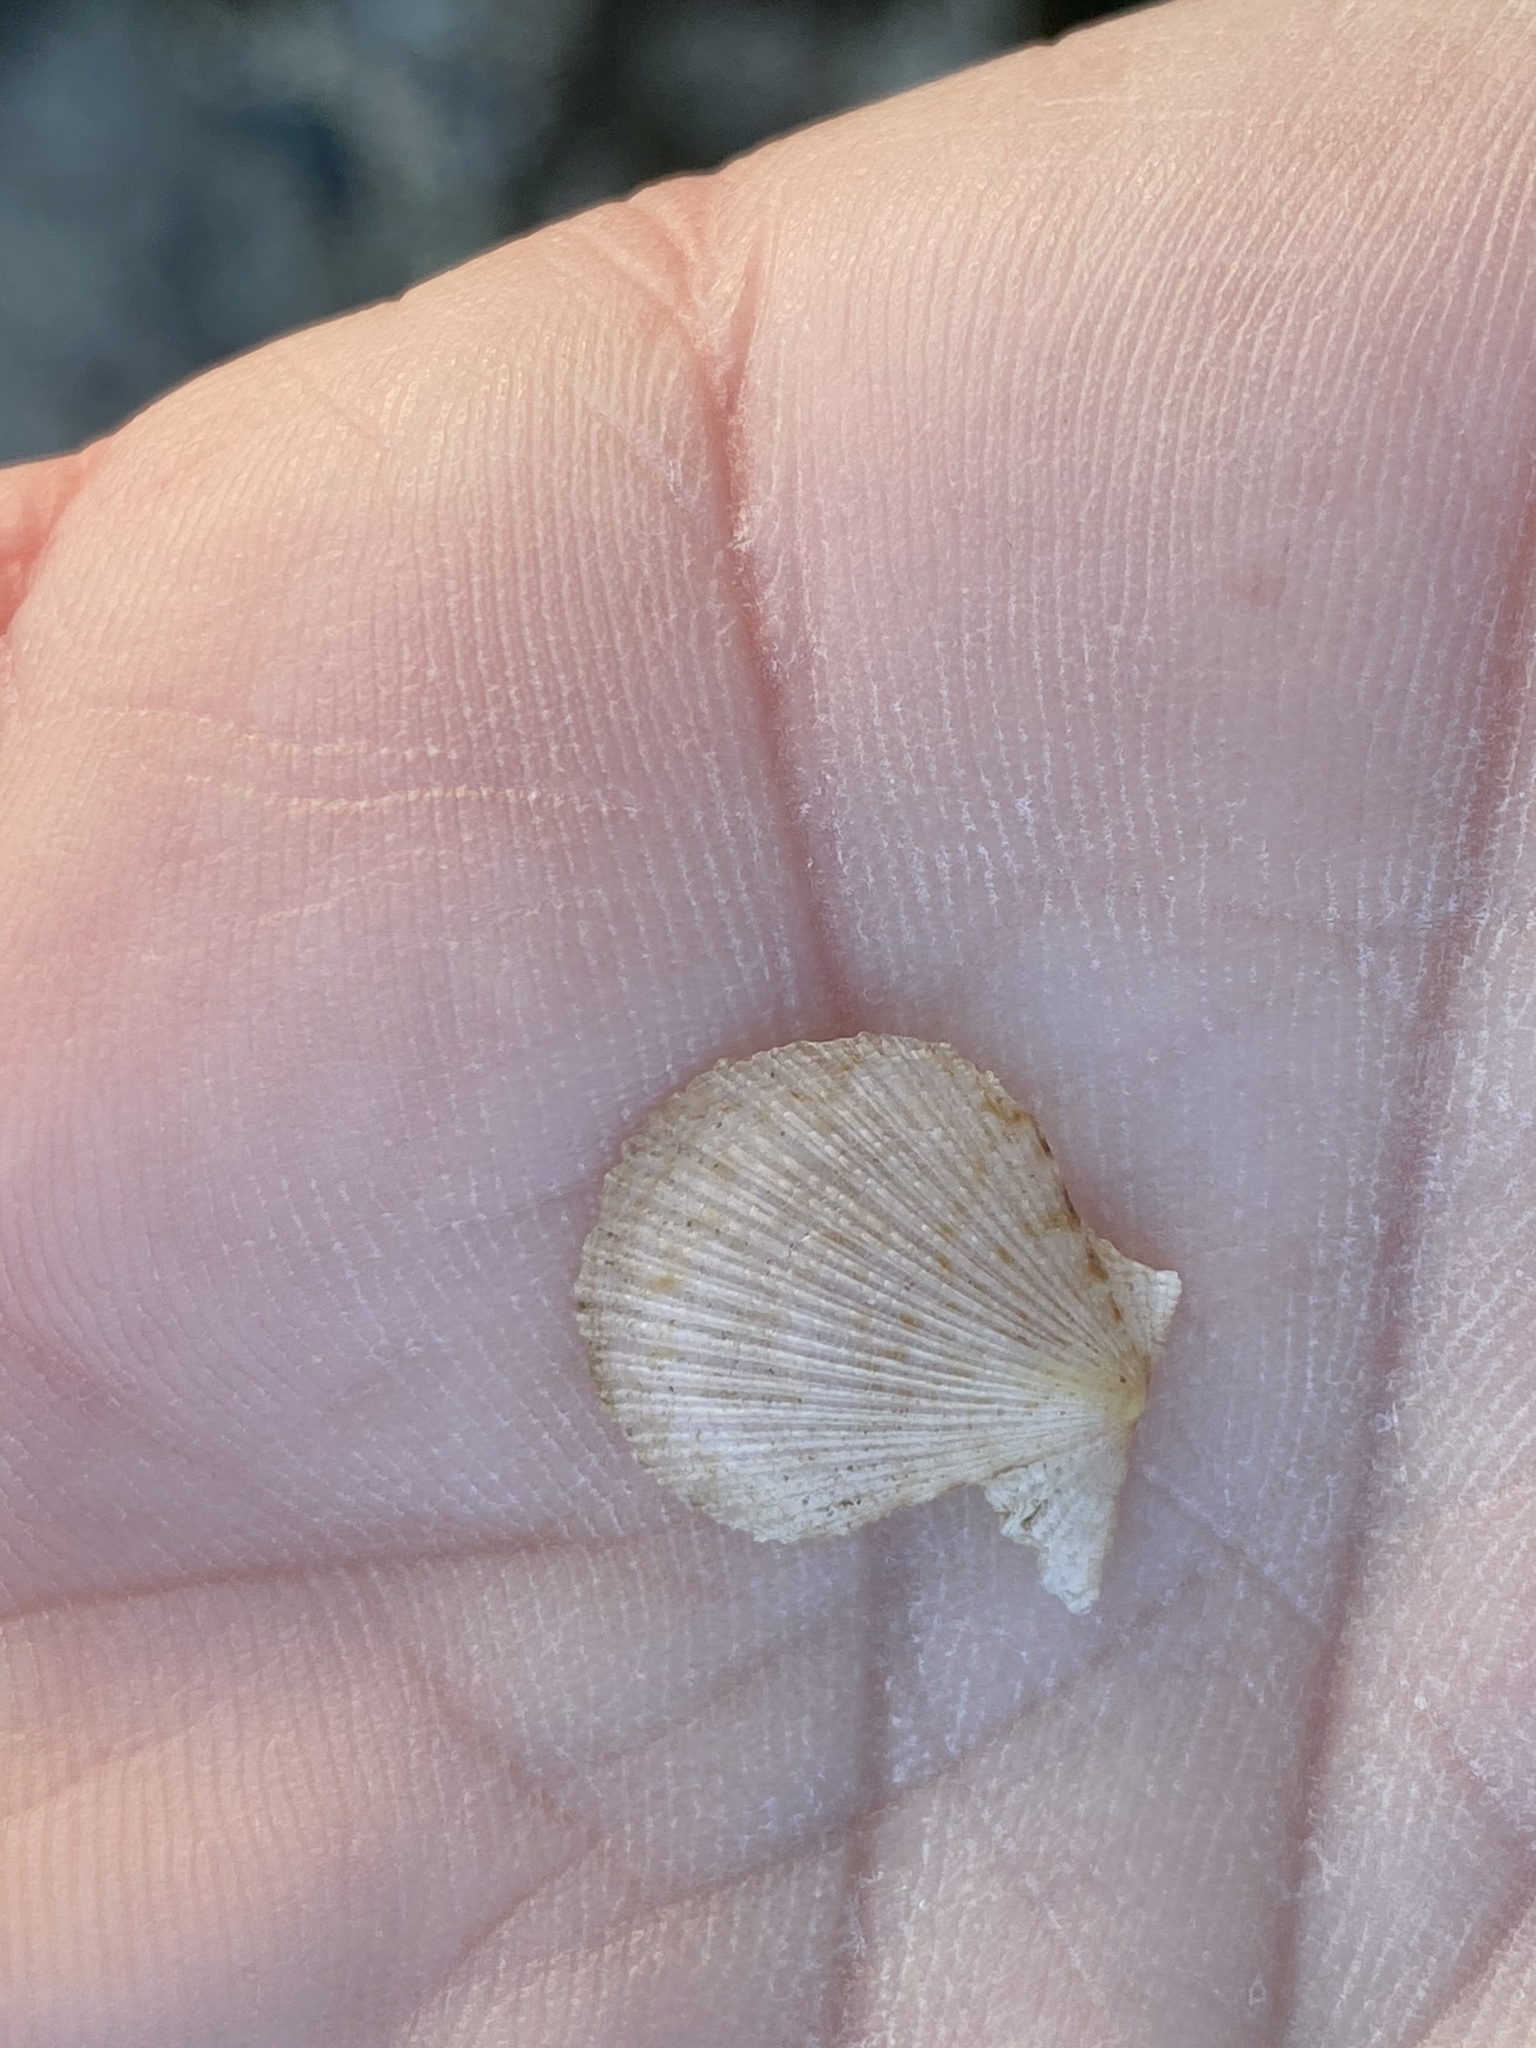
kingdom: Animalia
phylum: Mollusca
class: Bivalvia
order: Pectinida
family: Pectinidae
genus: Crassadoma
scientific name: Crassadoma gigantea
